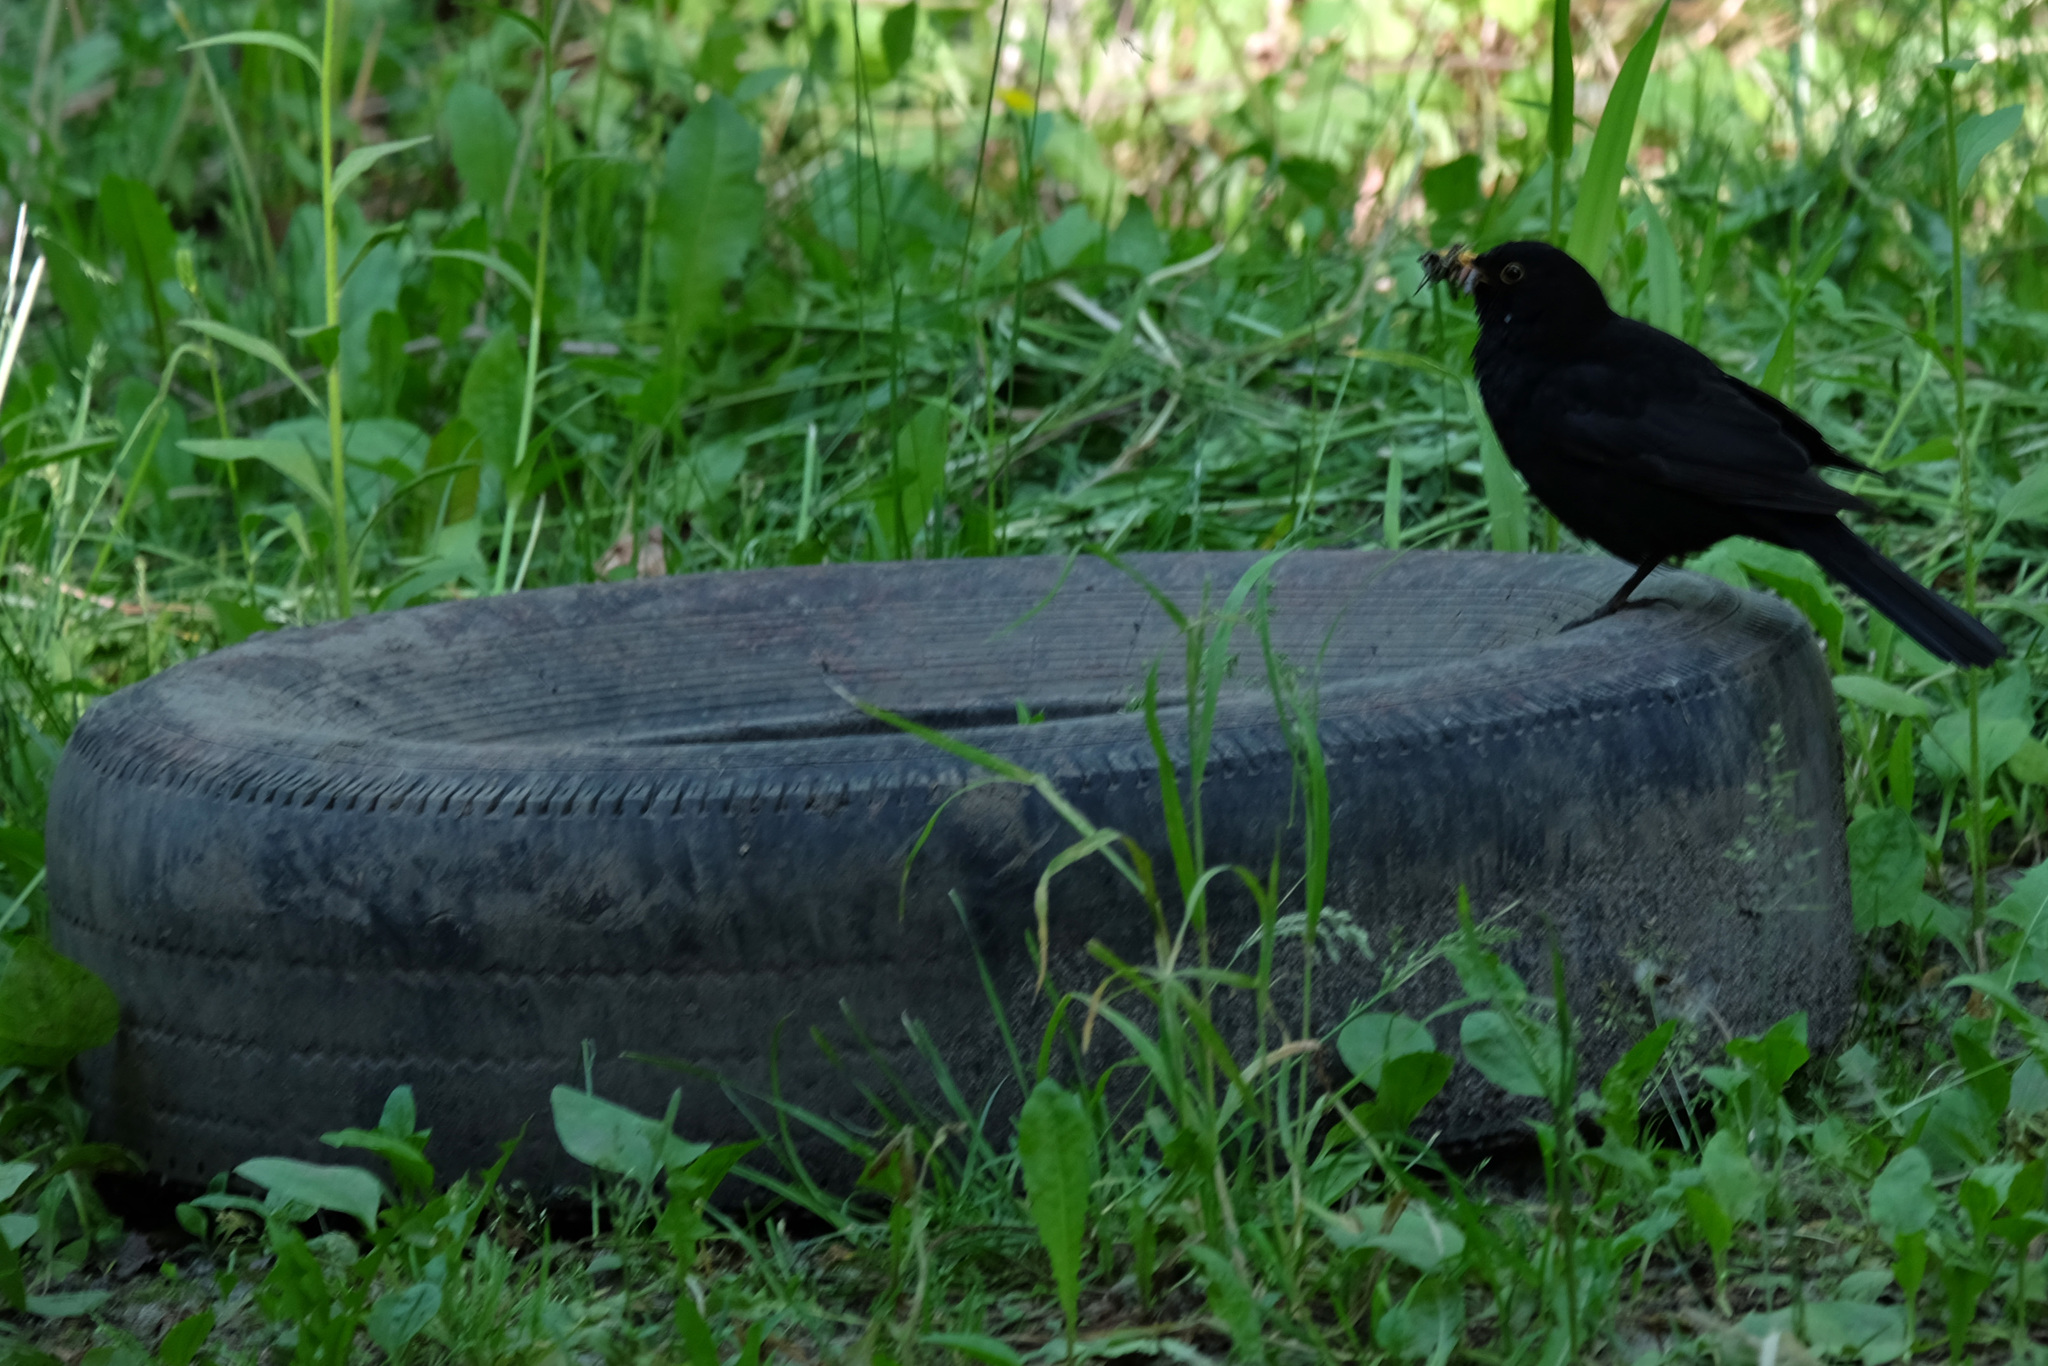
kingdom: Animalia
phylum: Chordata
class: Aves
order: Passeriformes
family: Turdidae
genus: Turdus
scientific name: Turdus merula
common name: Common blackbird
